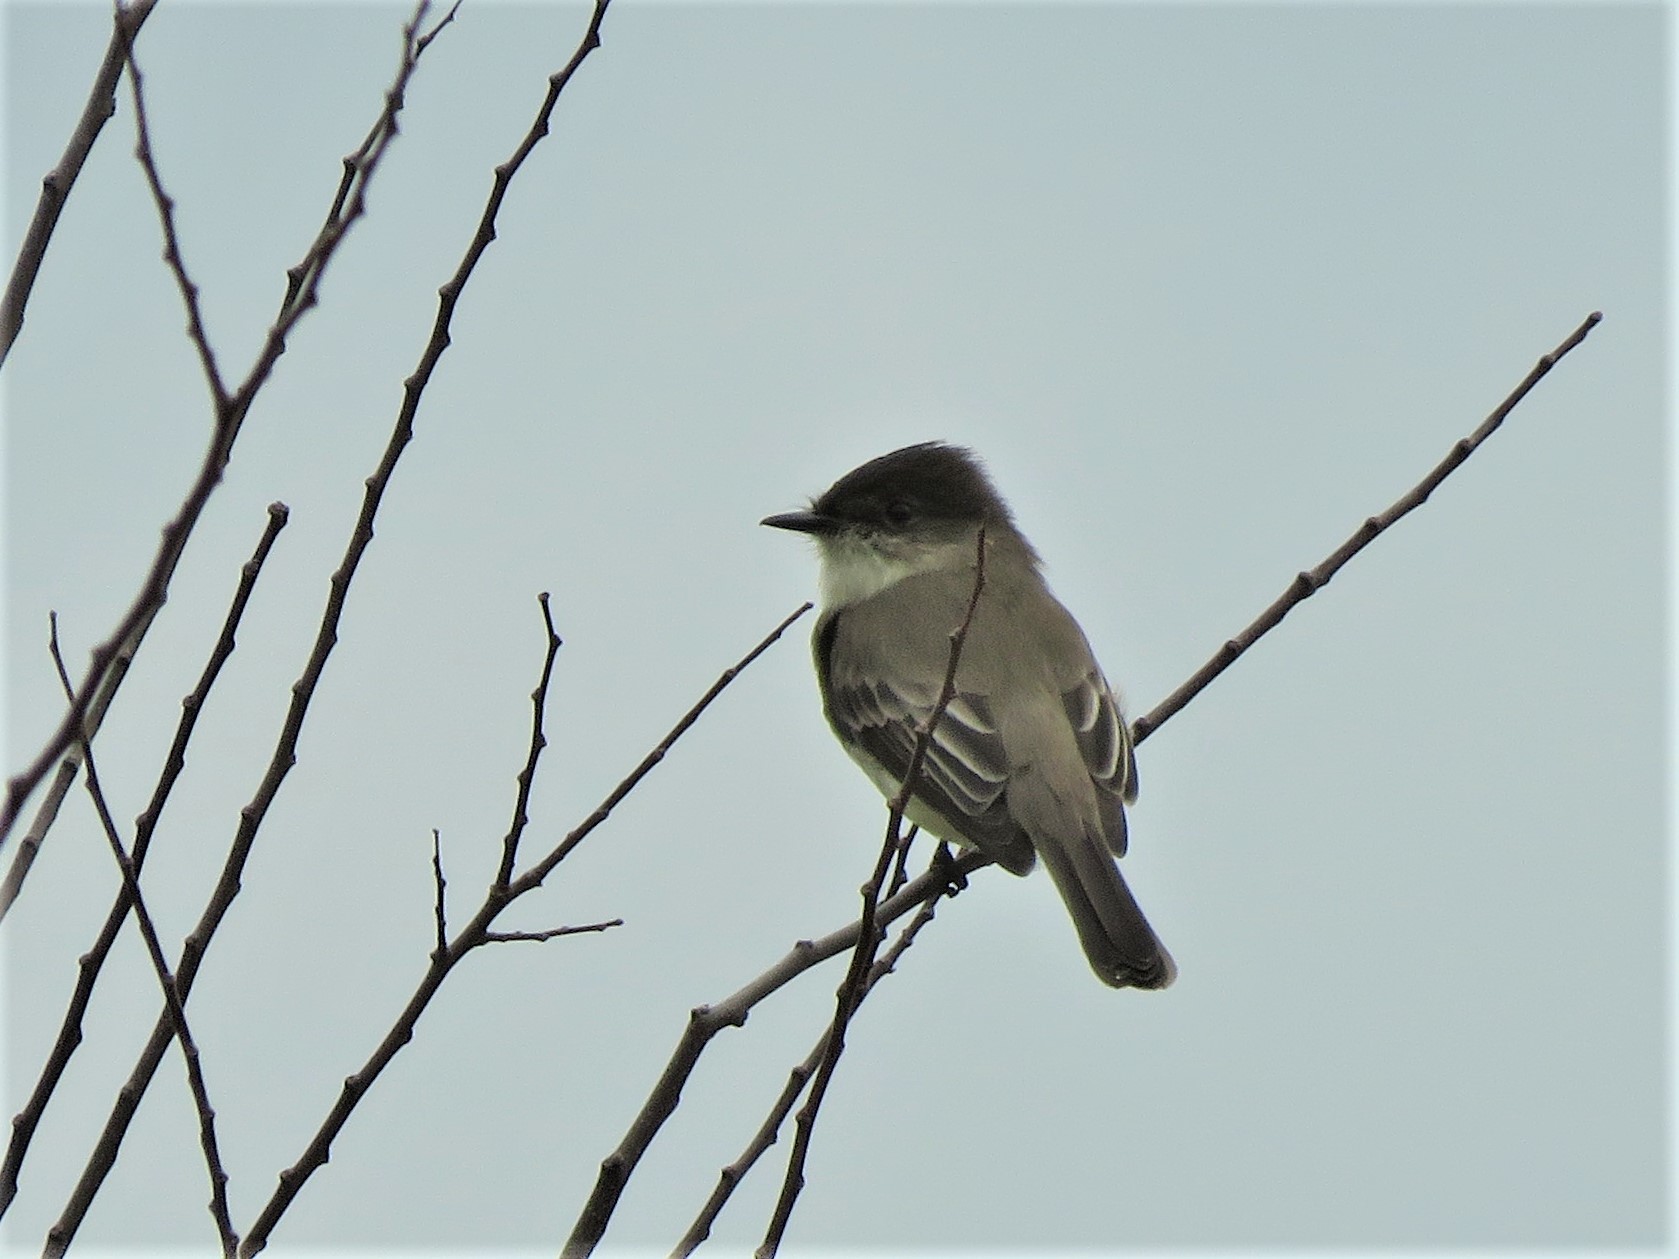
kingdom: Animalia
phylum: Chordata
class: Aves
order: Passeriformes
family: Tyrannidae
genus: Sayornis
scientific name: Sayornis phoebe
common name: Eastern phoebe
